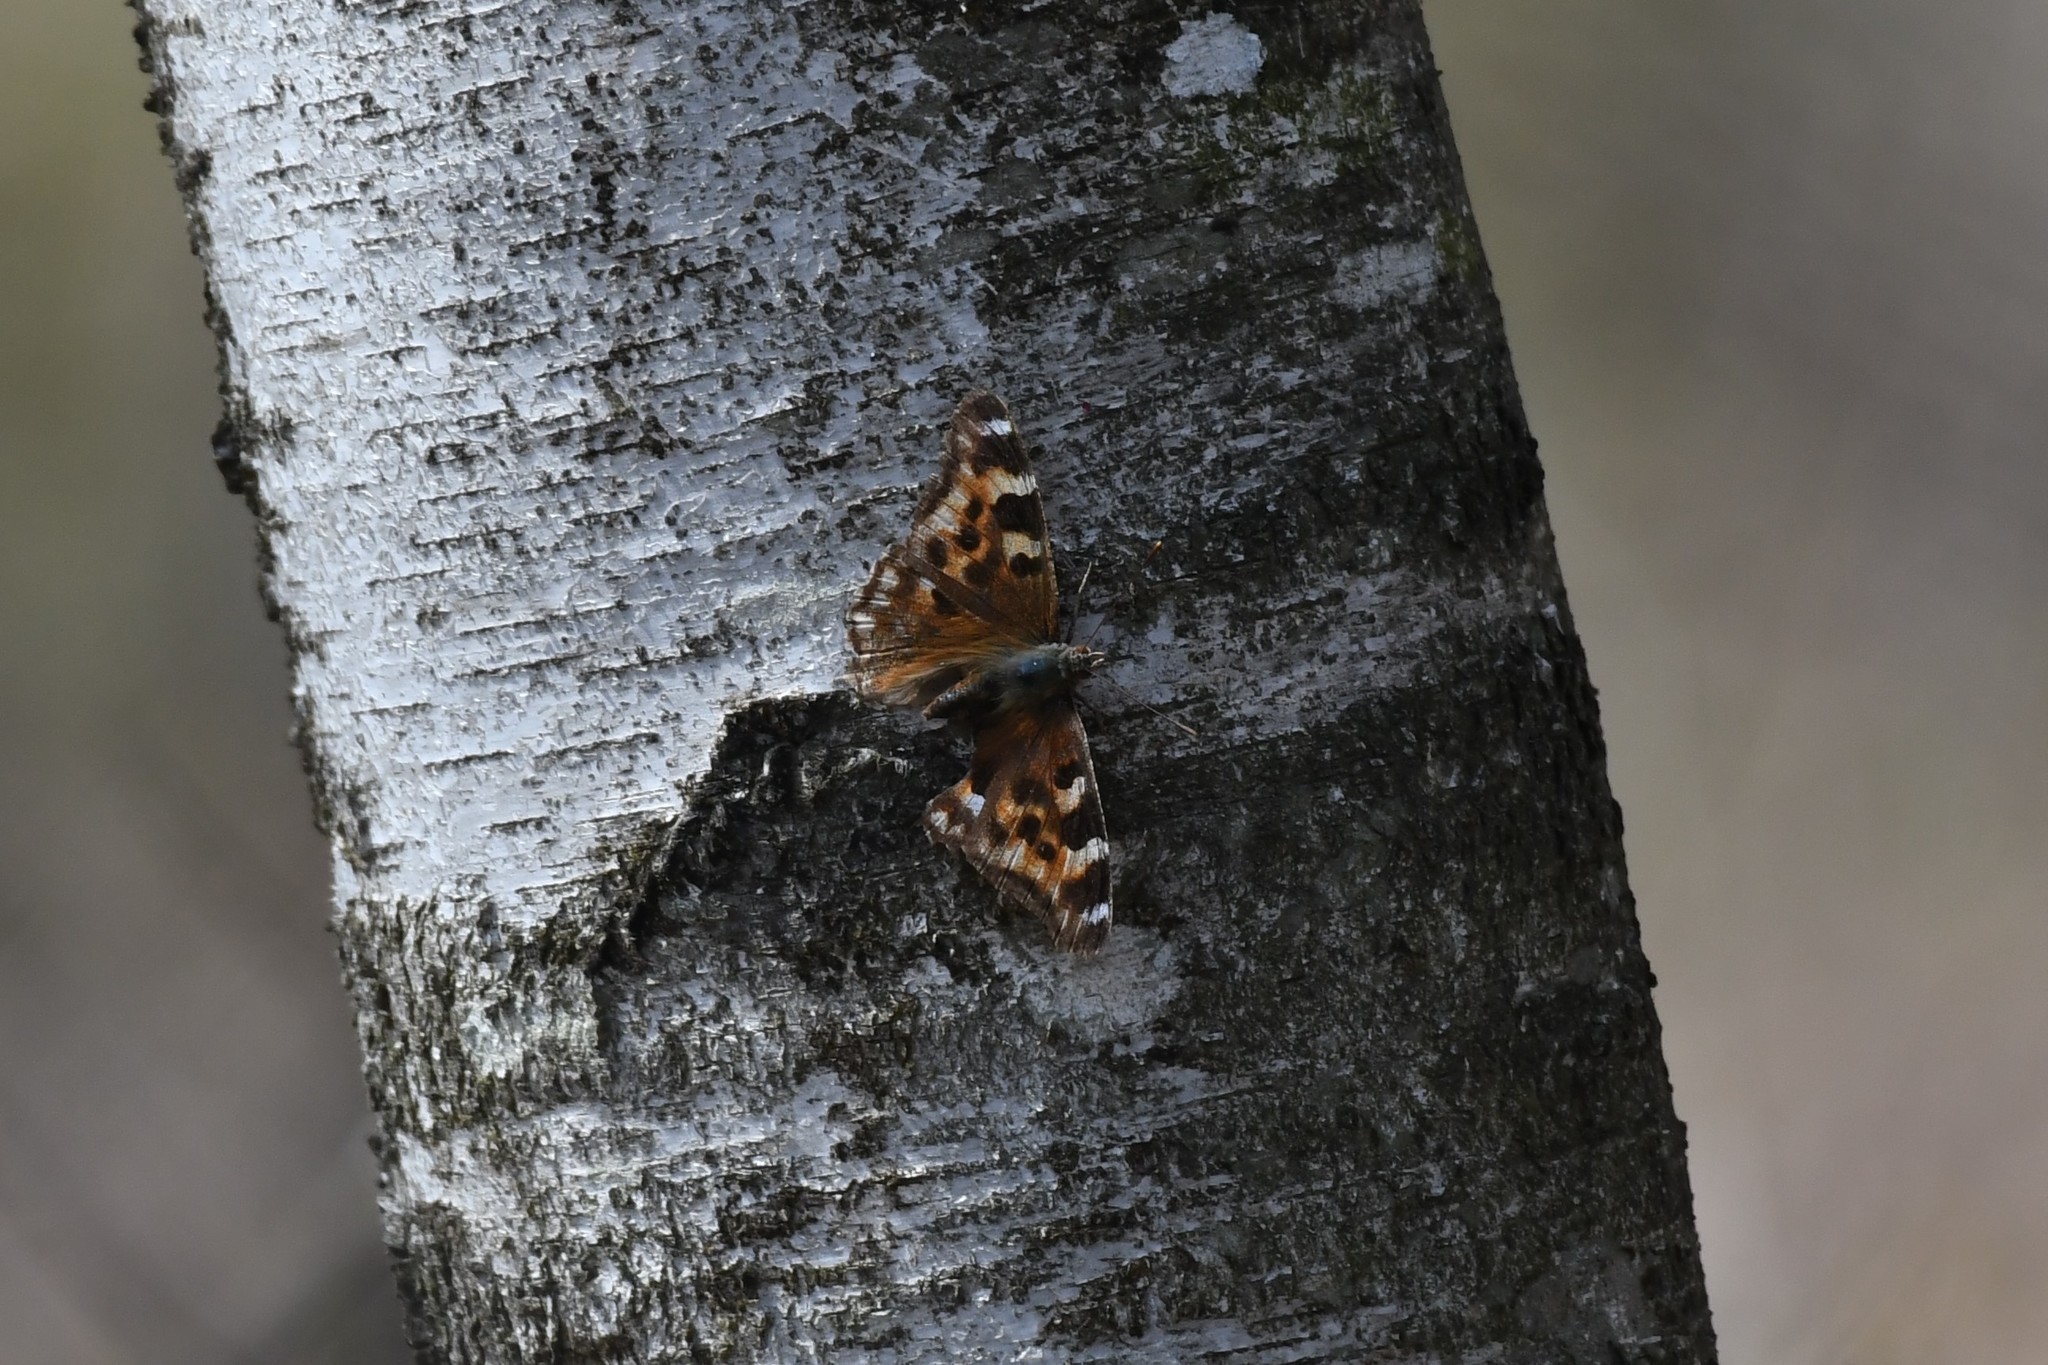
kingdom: Animalia
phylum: Arthropoda
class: Insecta
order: Lepidoptera
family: Nymphalidae
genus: Polygonia
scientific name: Polygonia vaualbum
